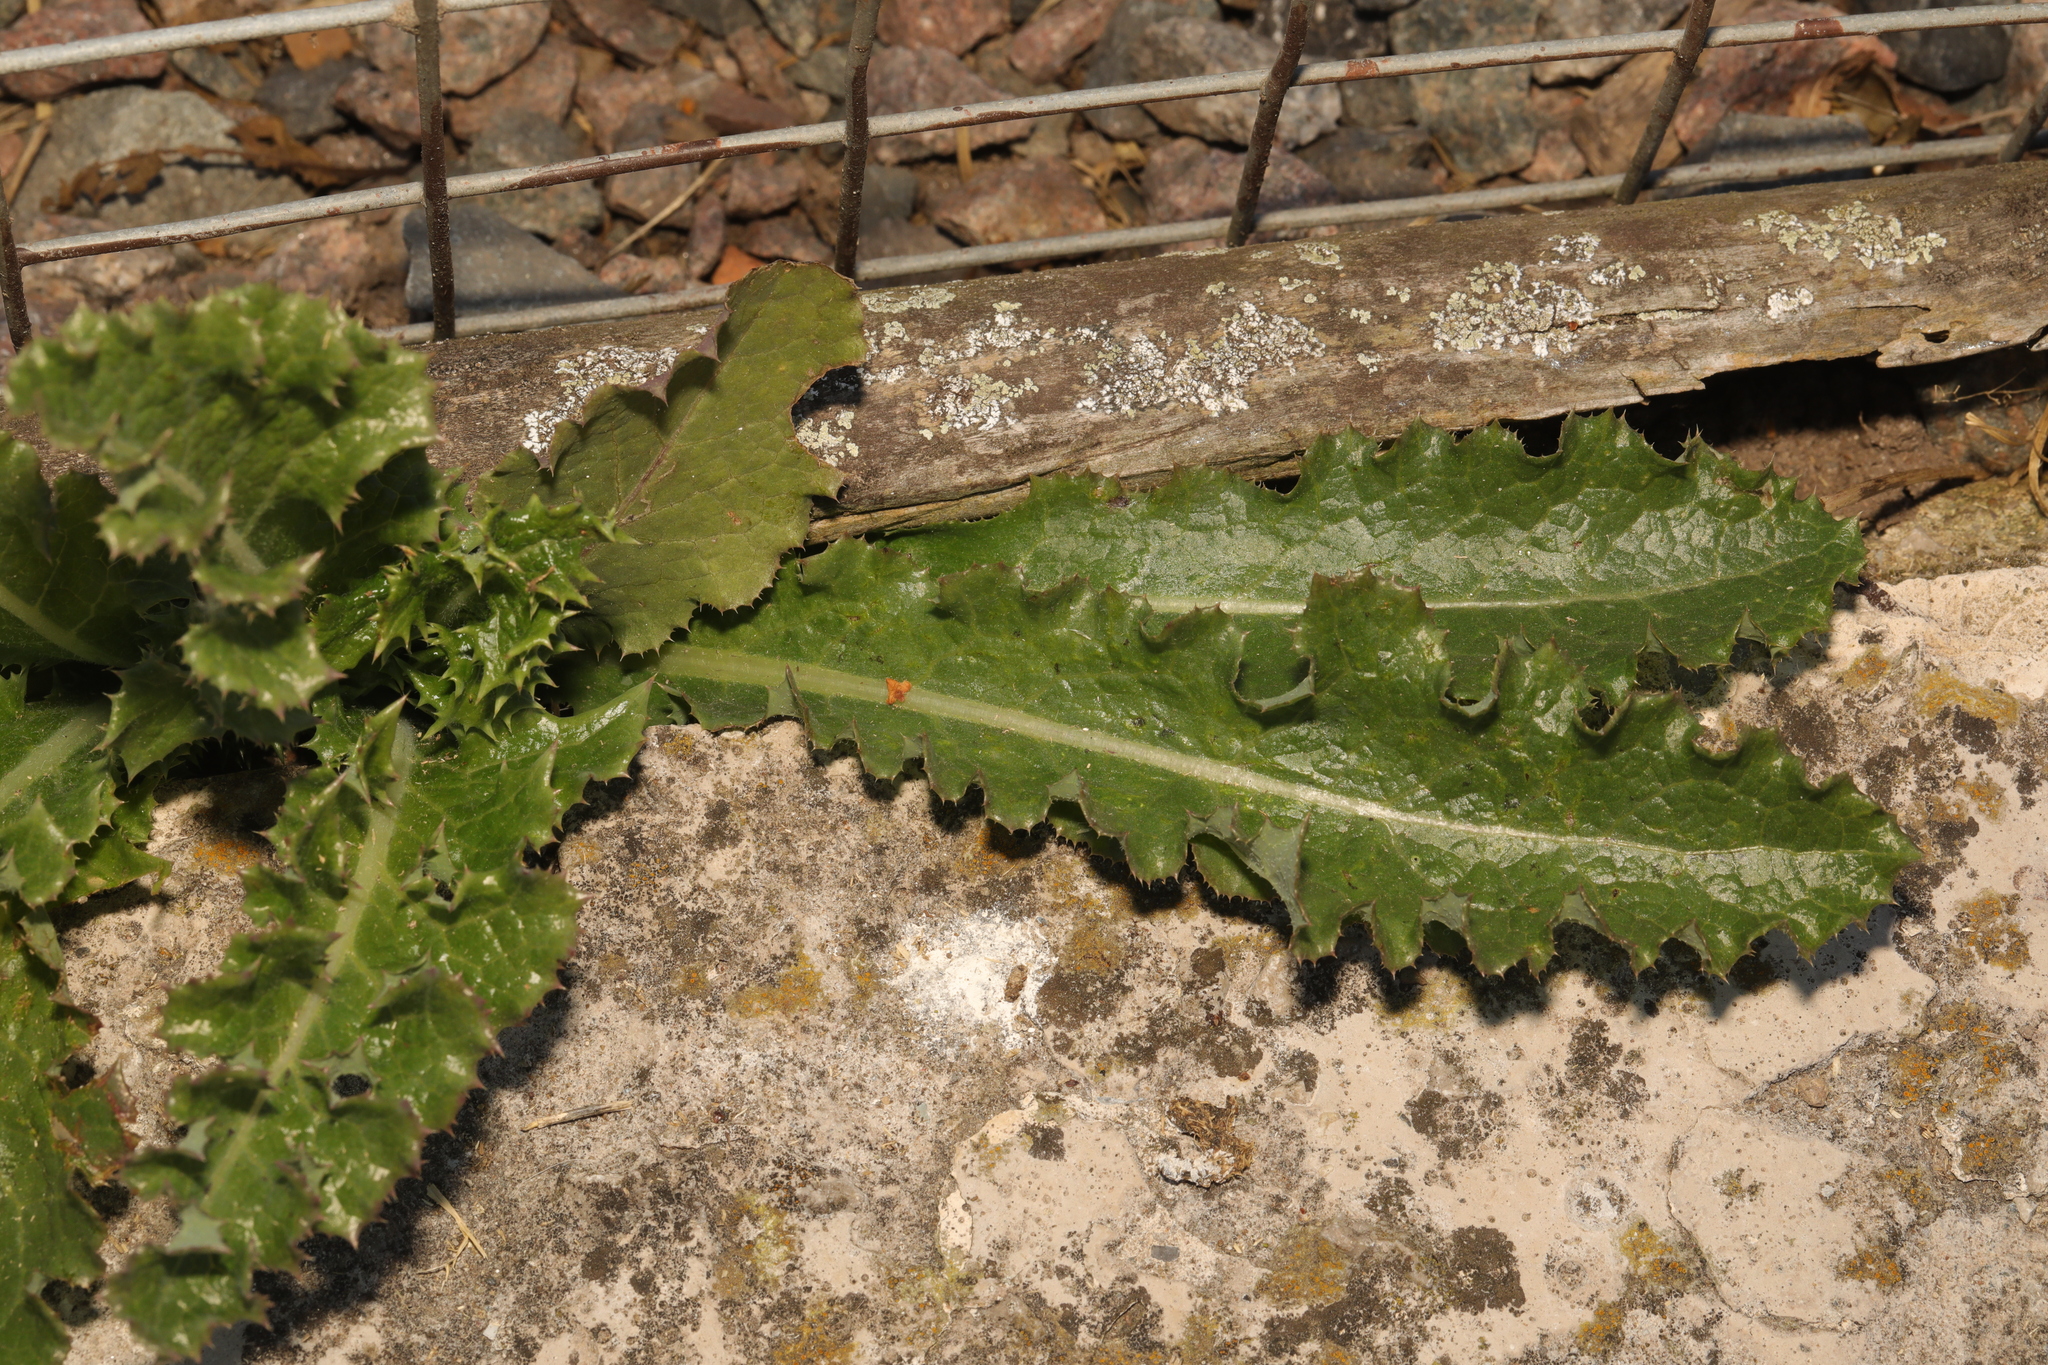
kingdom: Plantae
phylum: Tracheophyta
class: Magnoliopsida
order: Asterales
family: Asteraceae
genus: Sonchus
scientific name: Sonchus asper
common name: Prickly sow-thistle
